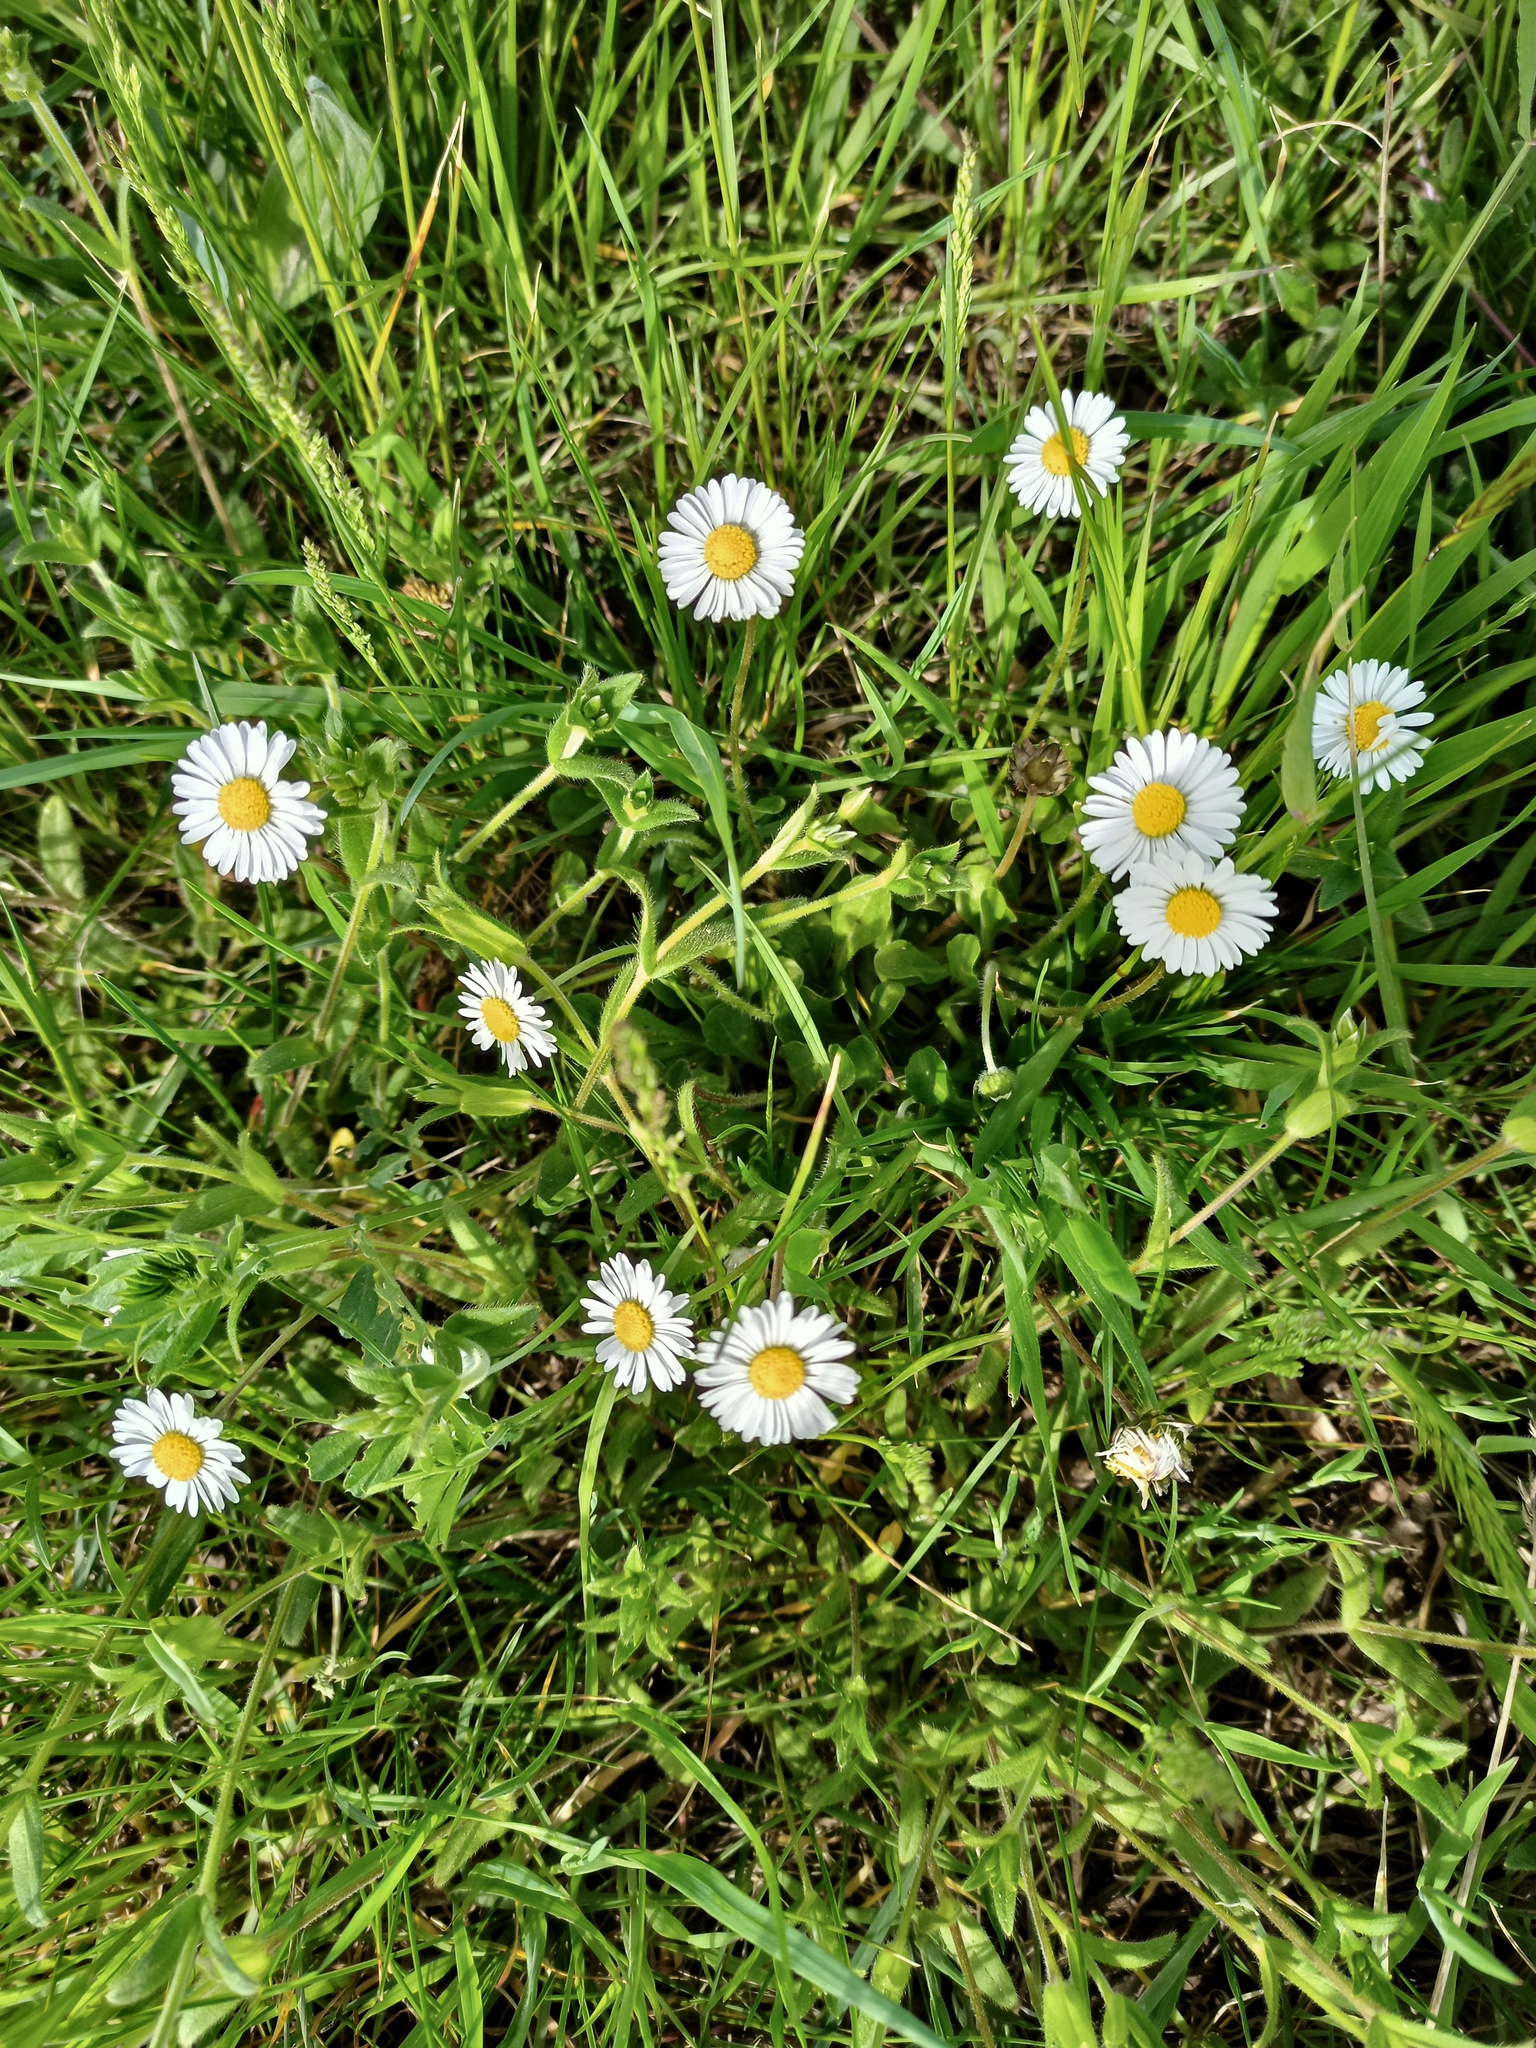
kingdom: Plantae
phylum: Tracheophyta
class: Magnoliopsida
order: Asterales
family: Asteraceae
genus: Bellis
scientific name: Bellis perennis
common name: Lawndaisy
